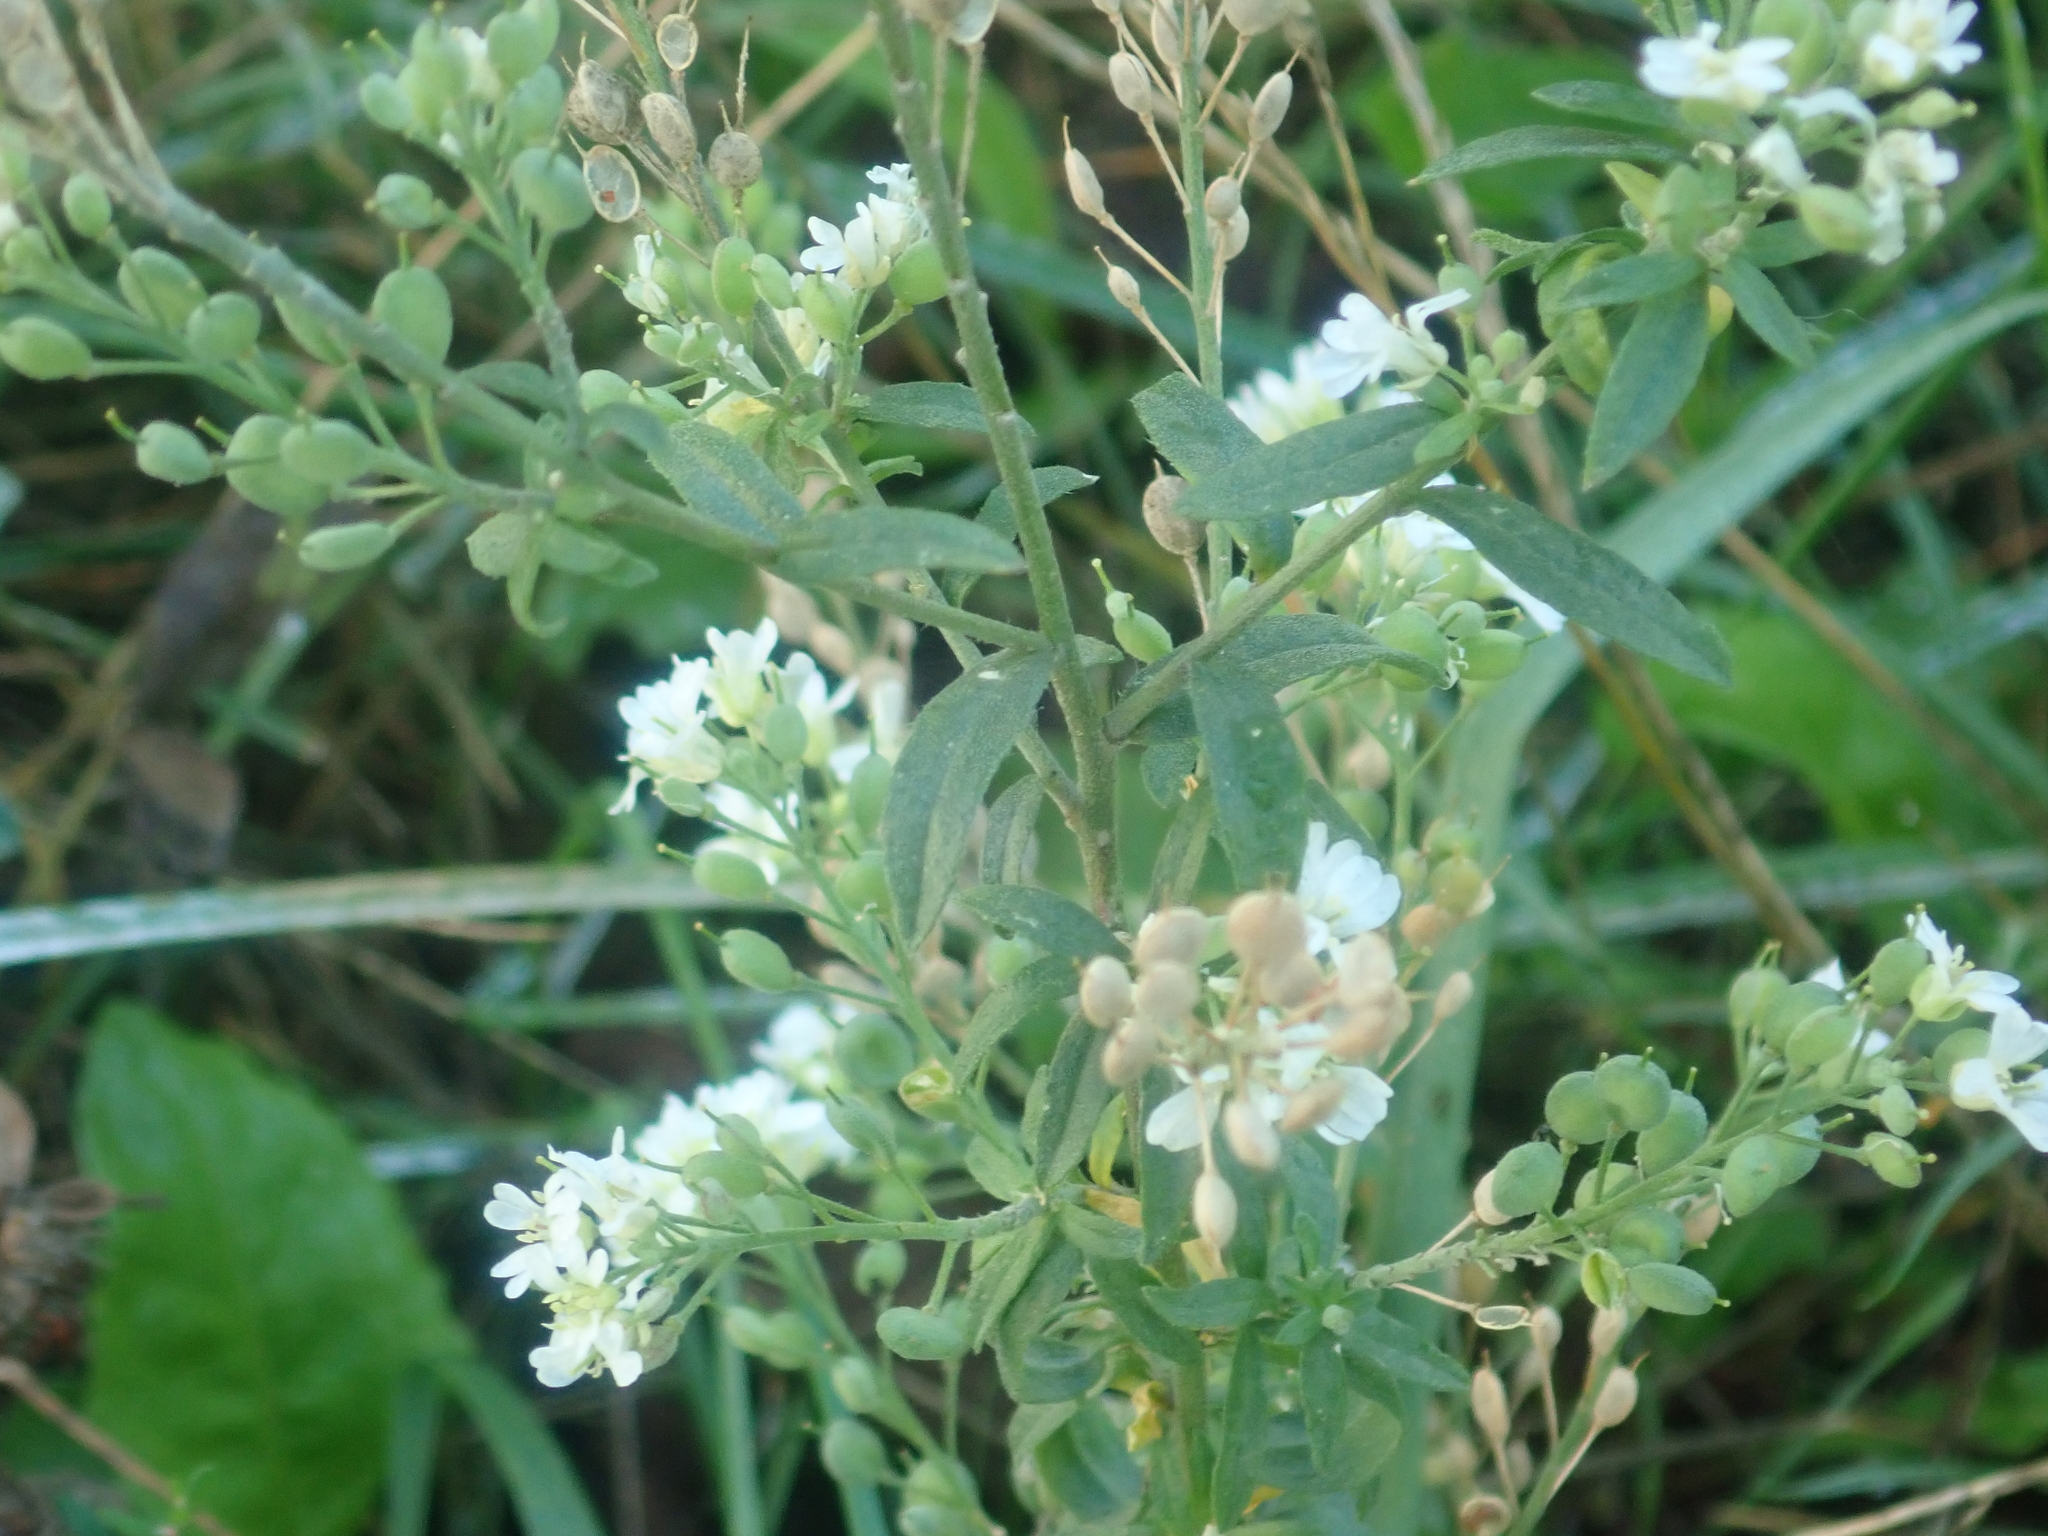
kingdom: Plantae
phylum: Tracheophyta
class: Magnoliopsida
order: Brassicales
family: Brassicaceae
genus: Berteroa
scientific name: Berteroa incana
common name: Hoary alison
